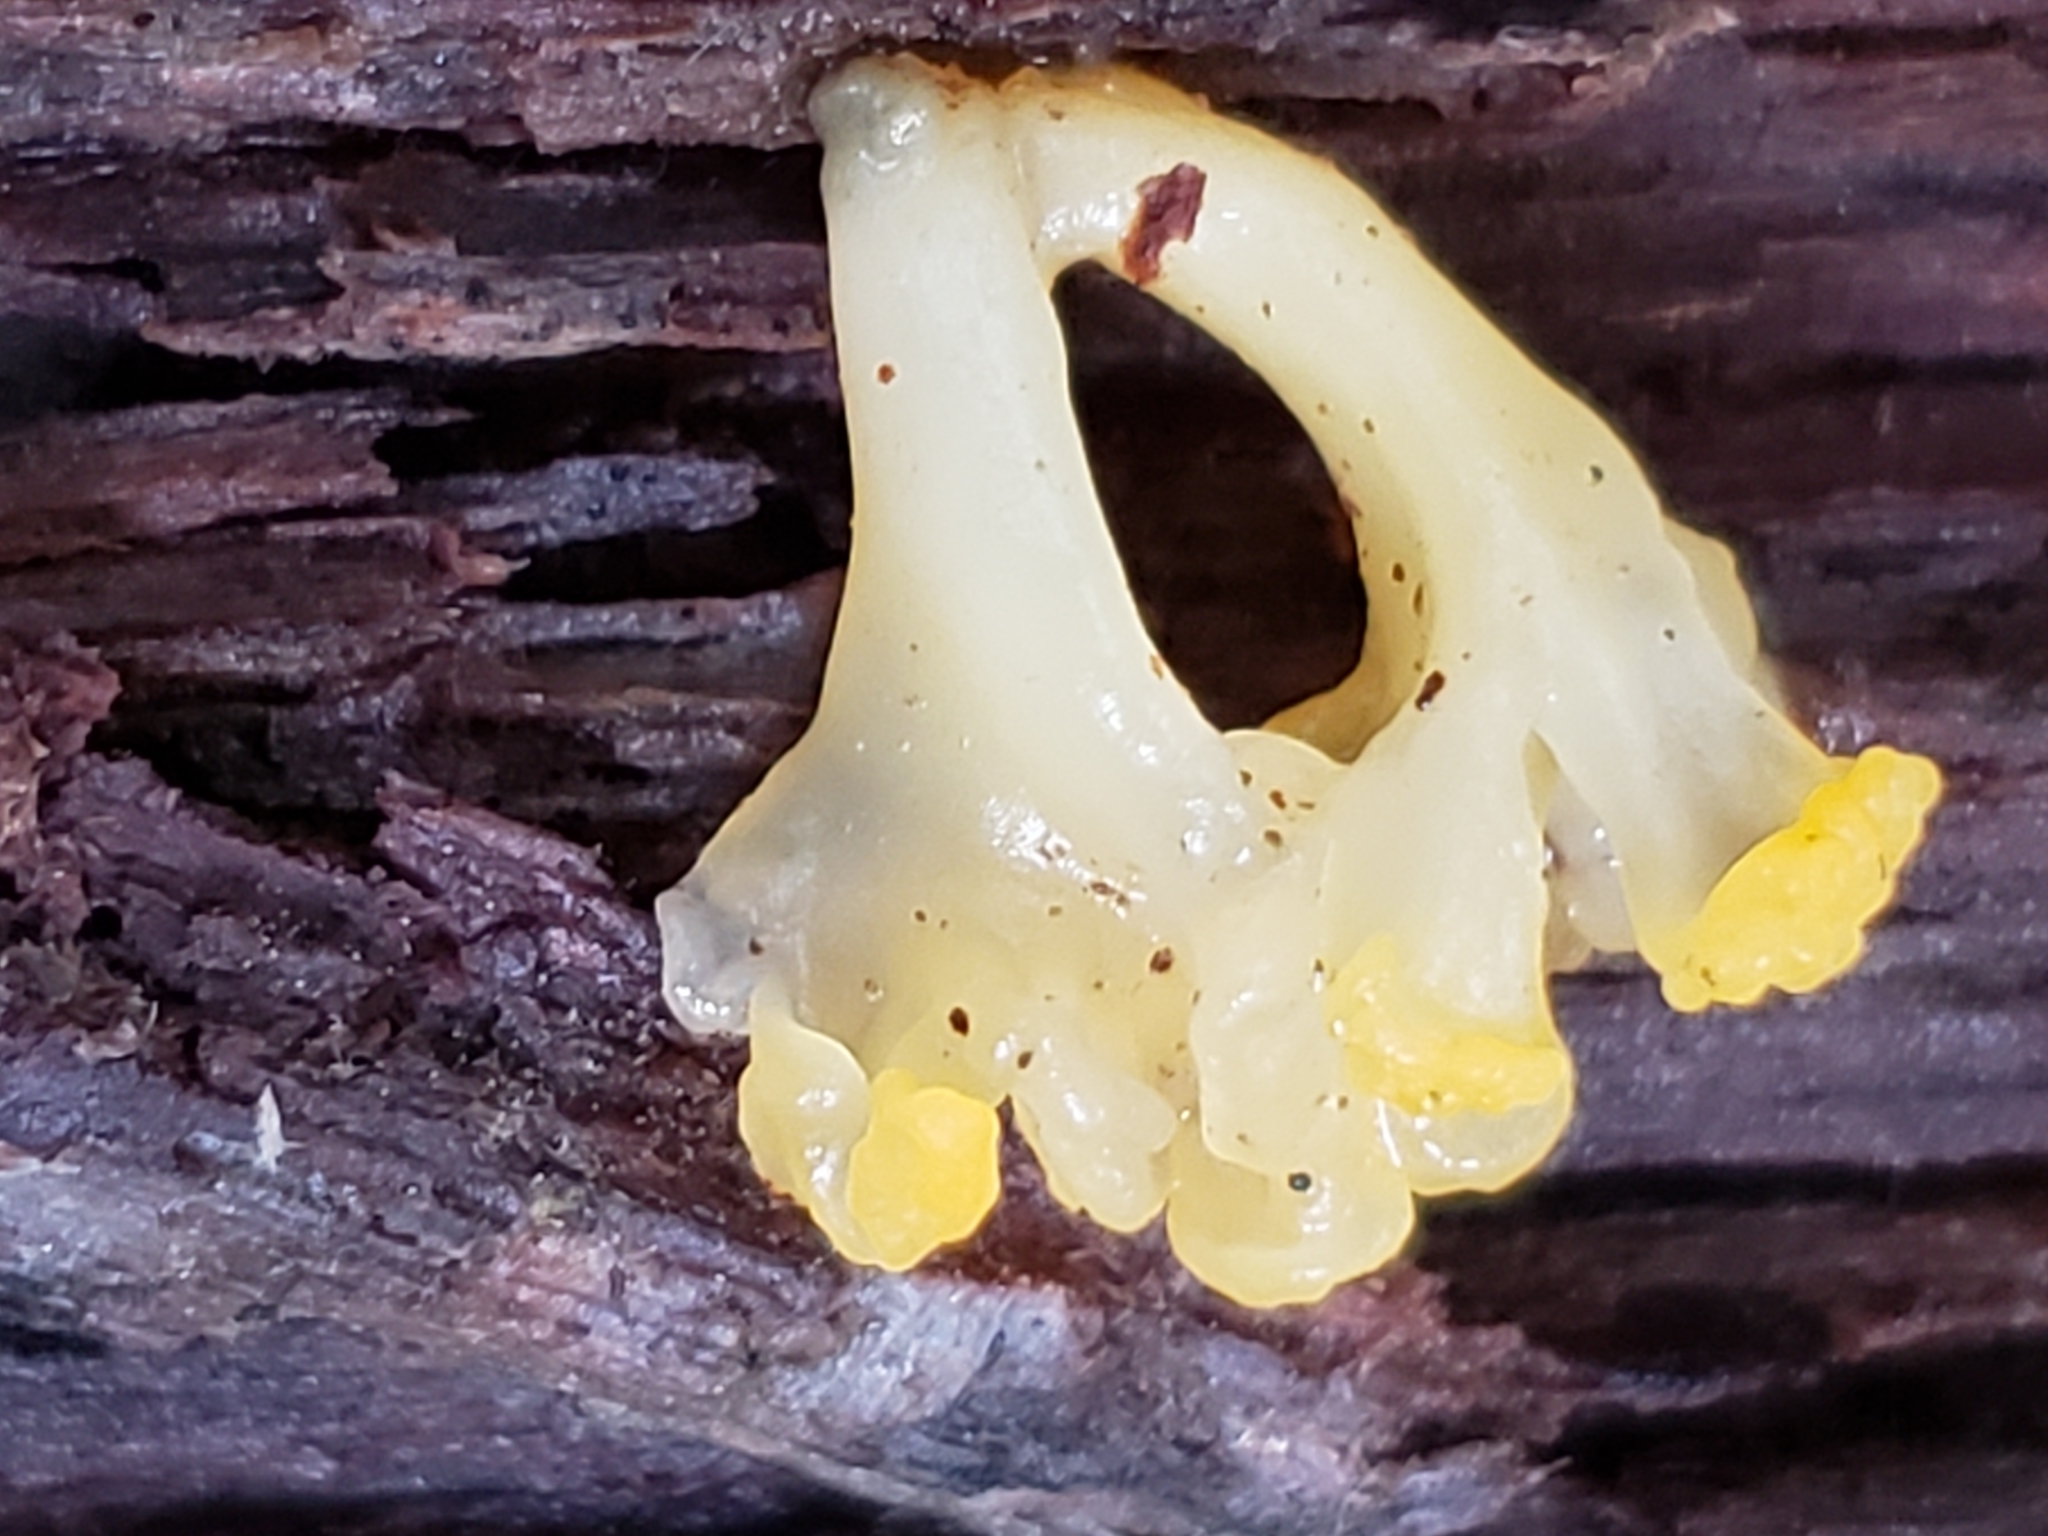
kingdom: Fungi
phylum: Basidiomycota
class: Dacrymycetes
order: Dacrymycetales
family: Dacrymycetaceae
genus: Dacrymyces
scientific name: Dacrymyces spathularius
